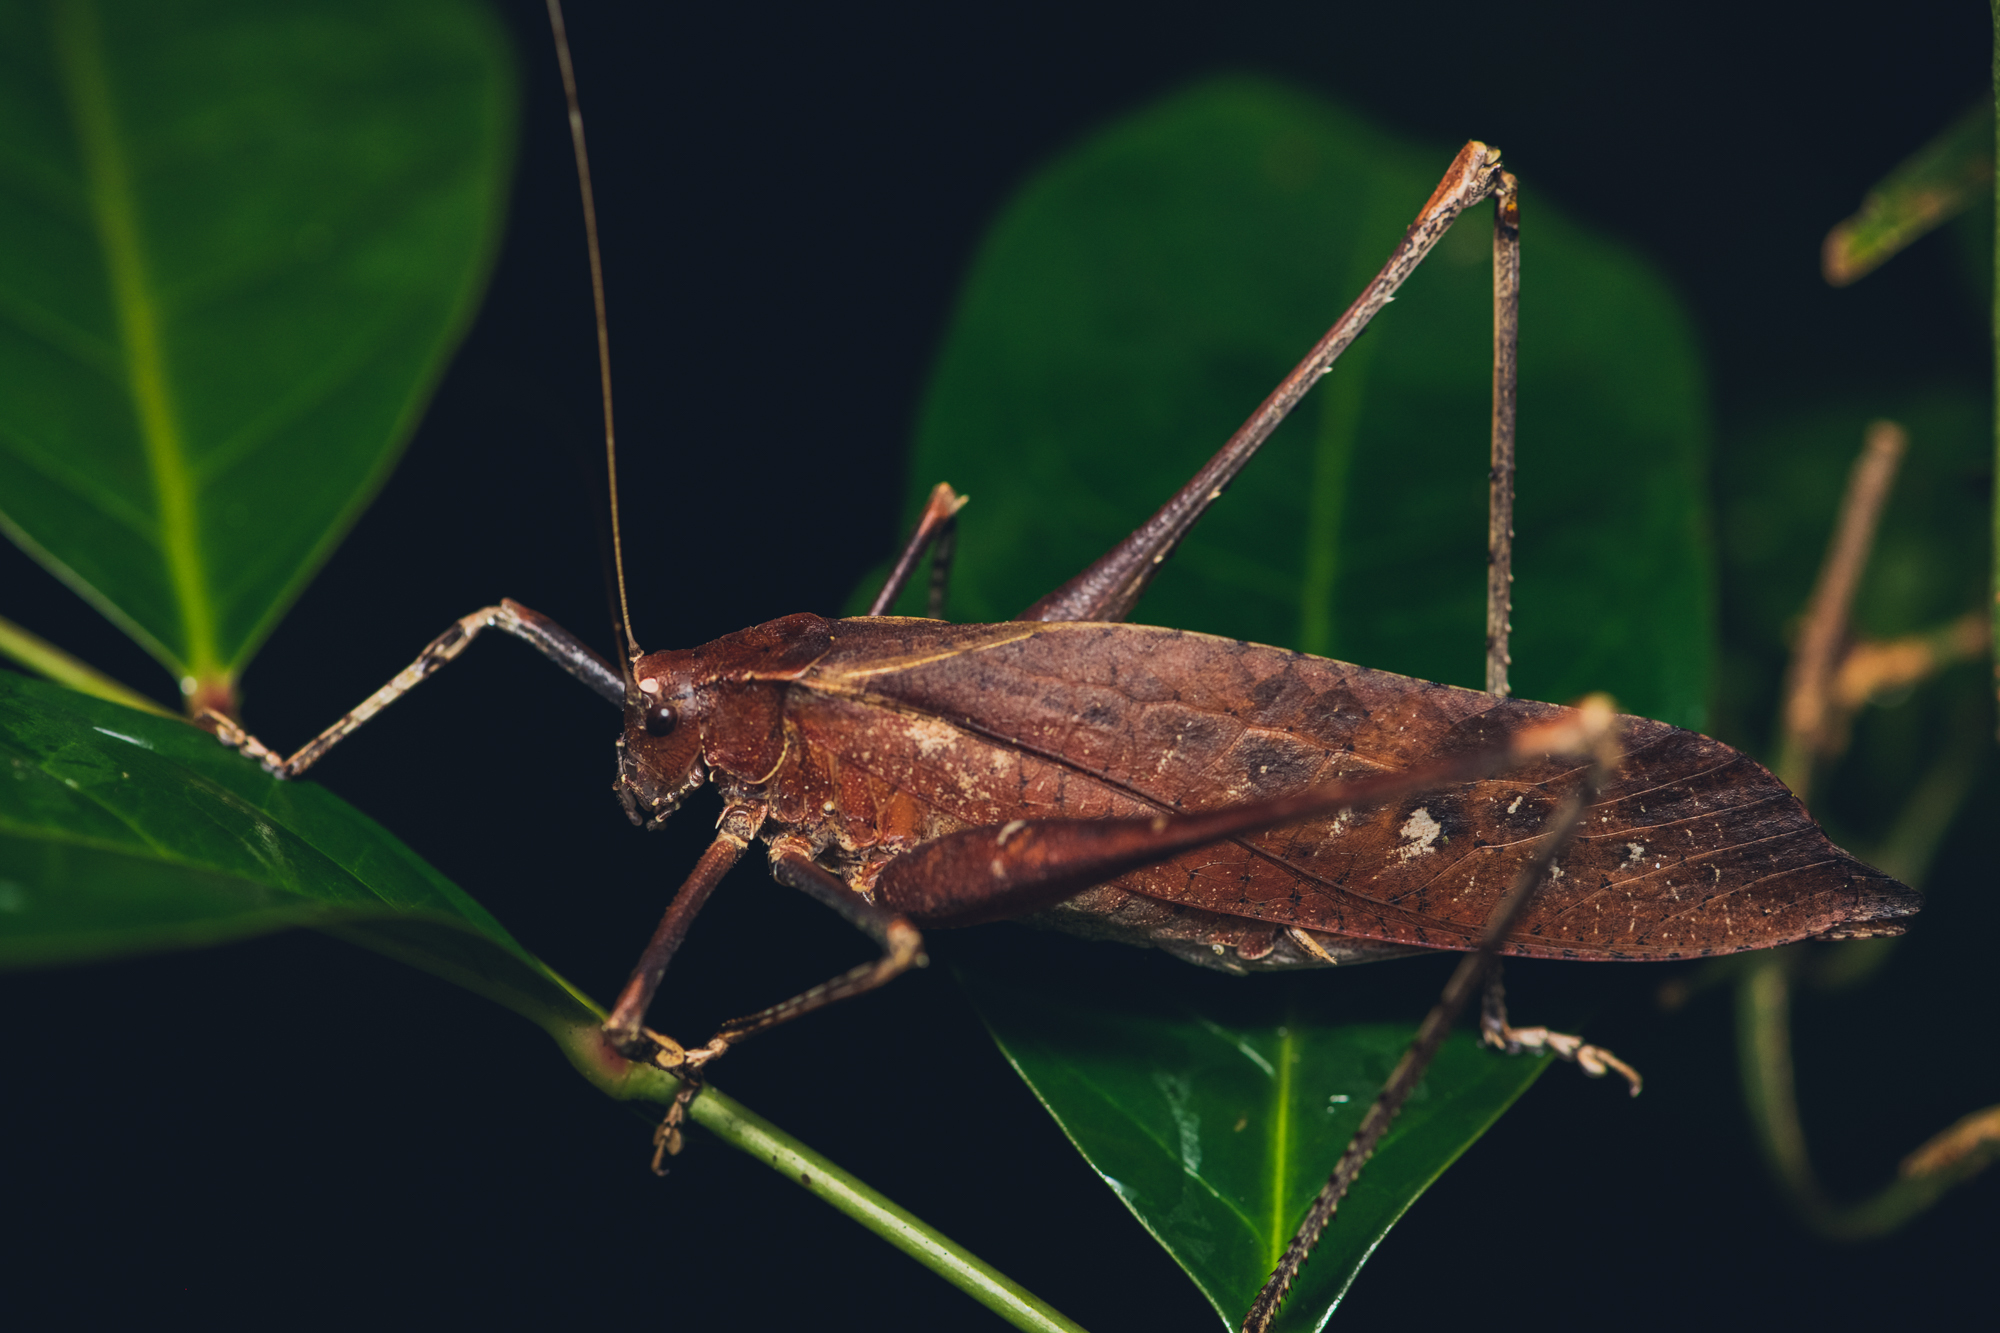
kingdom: Animalia
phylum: Arthropoda
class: Insecta
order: Orthoptera
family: Tettigoniidae
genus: Mecopoda
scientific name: Mecopoda elongata
